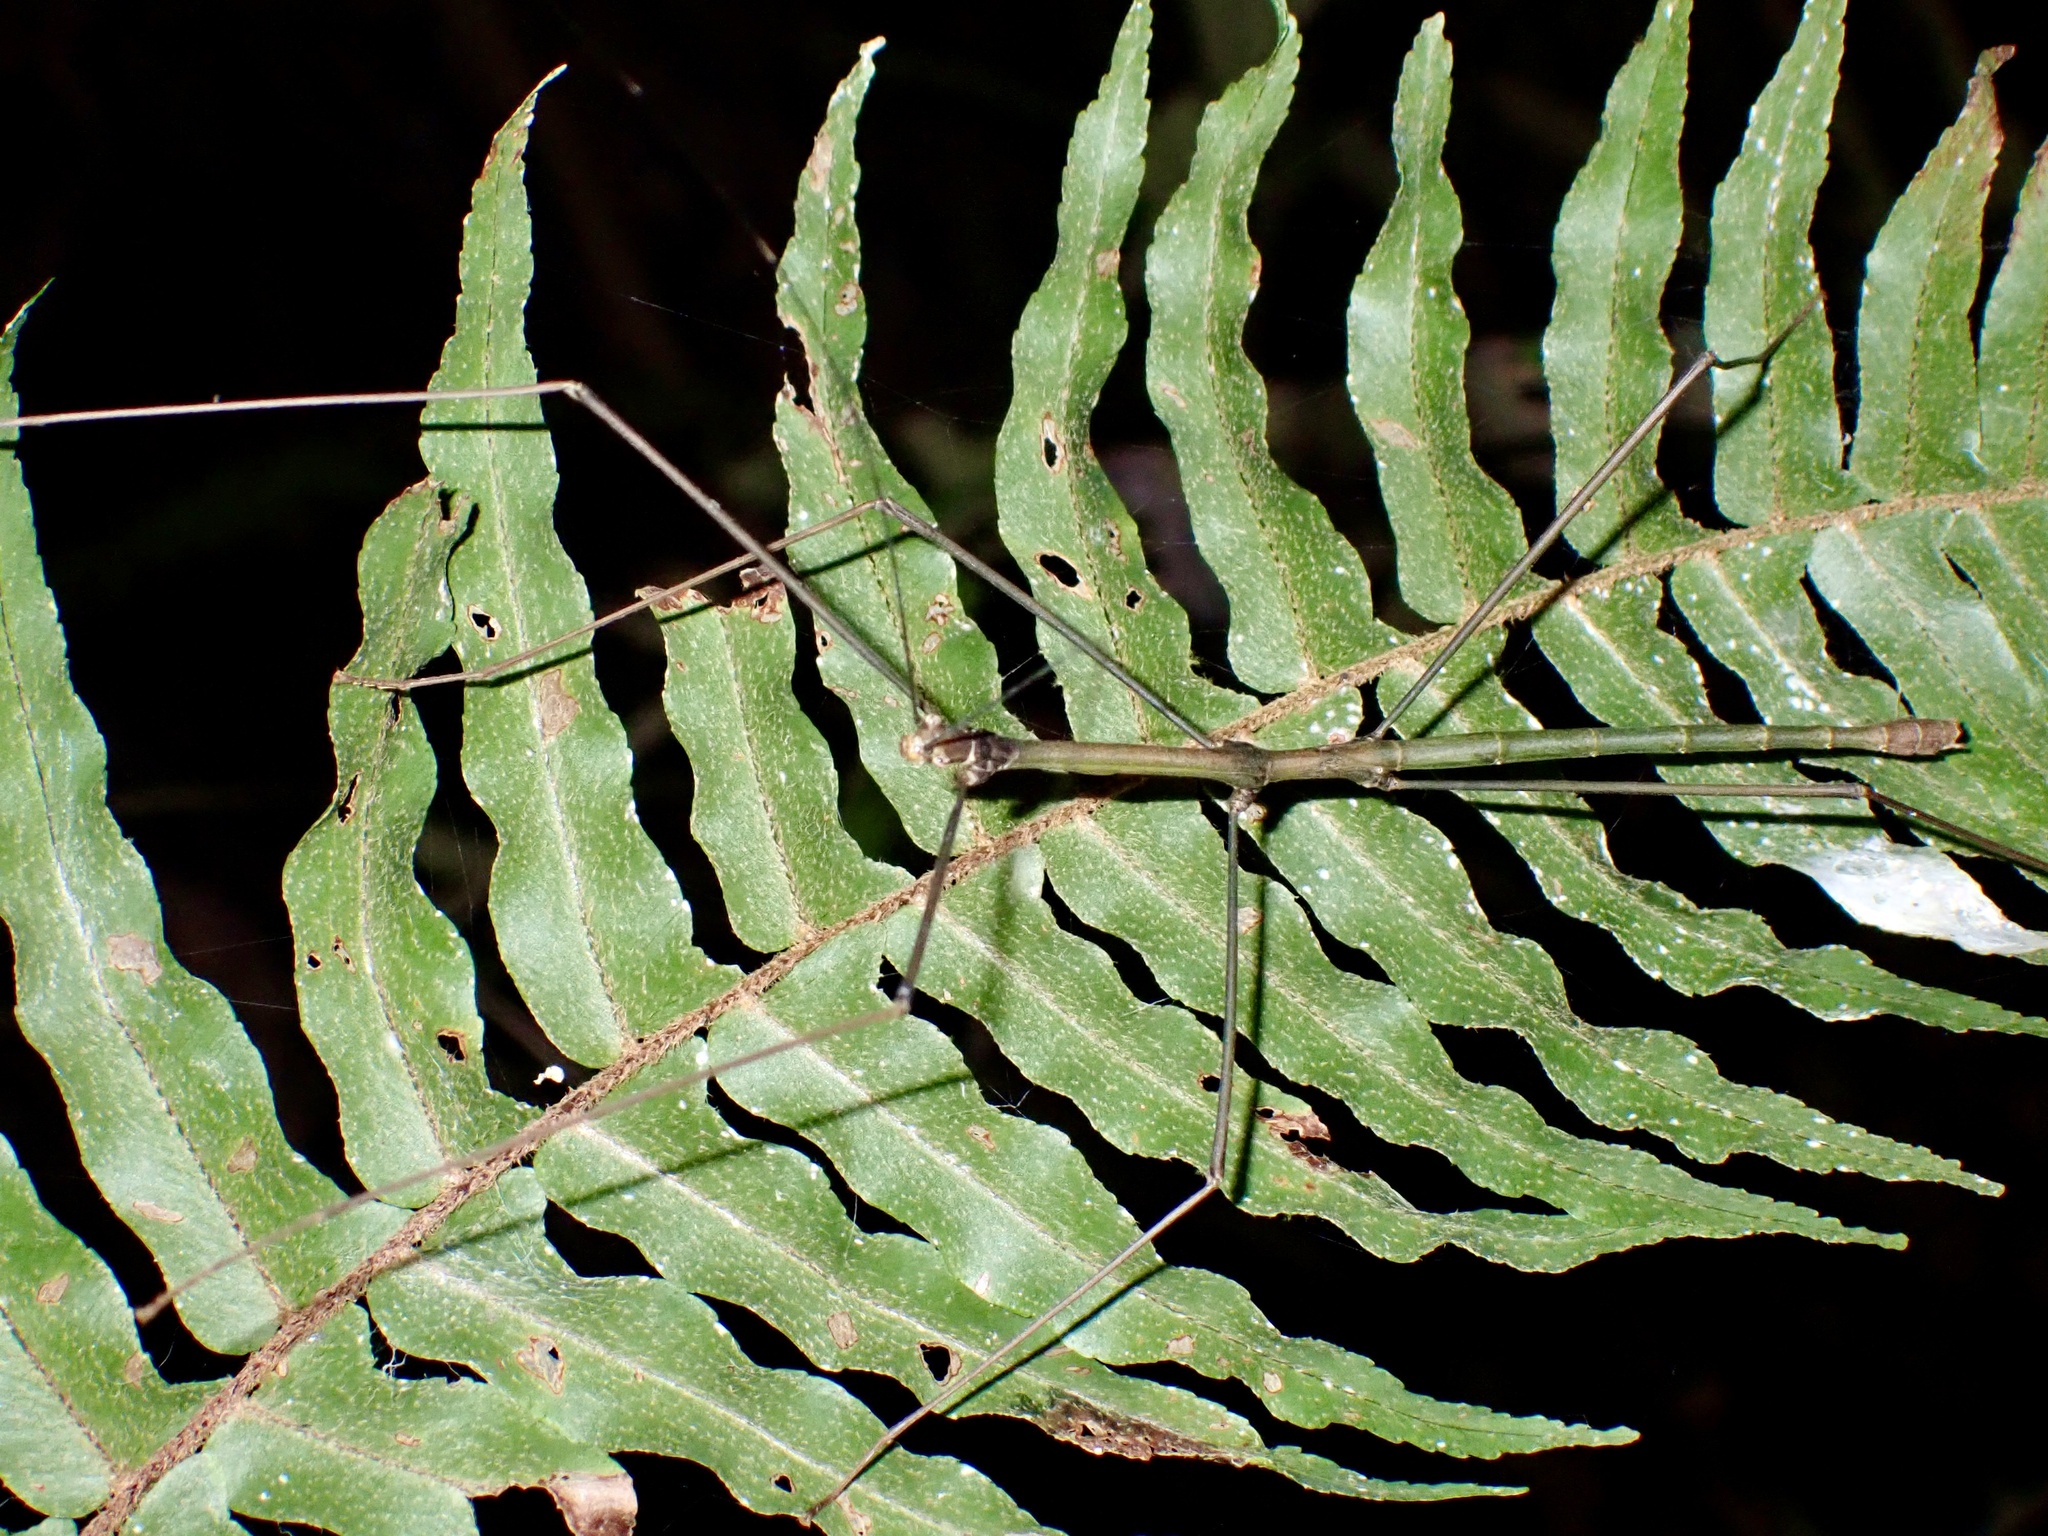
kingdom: Animalia
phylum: Arthropoda
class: Insecta
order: Phasmida
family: Lonchodidae
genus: Orxines
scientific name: Orxines xiphias
